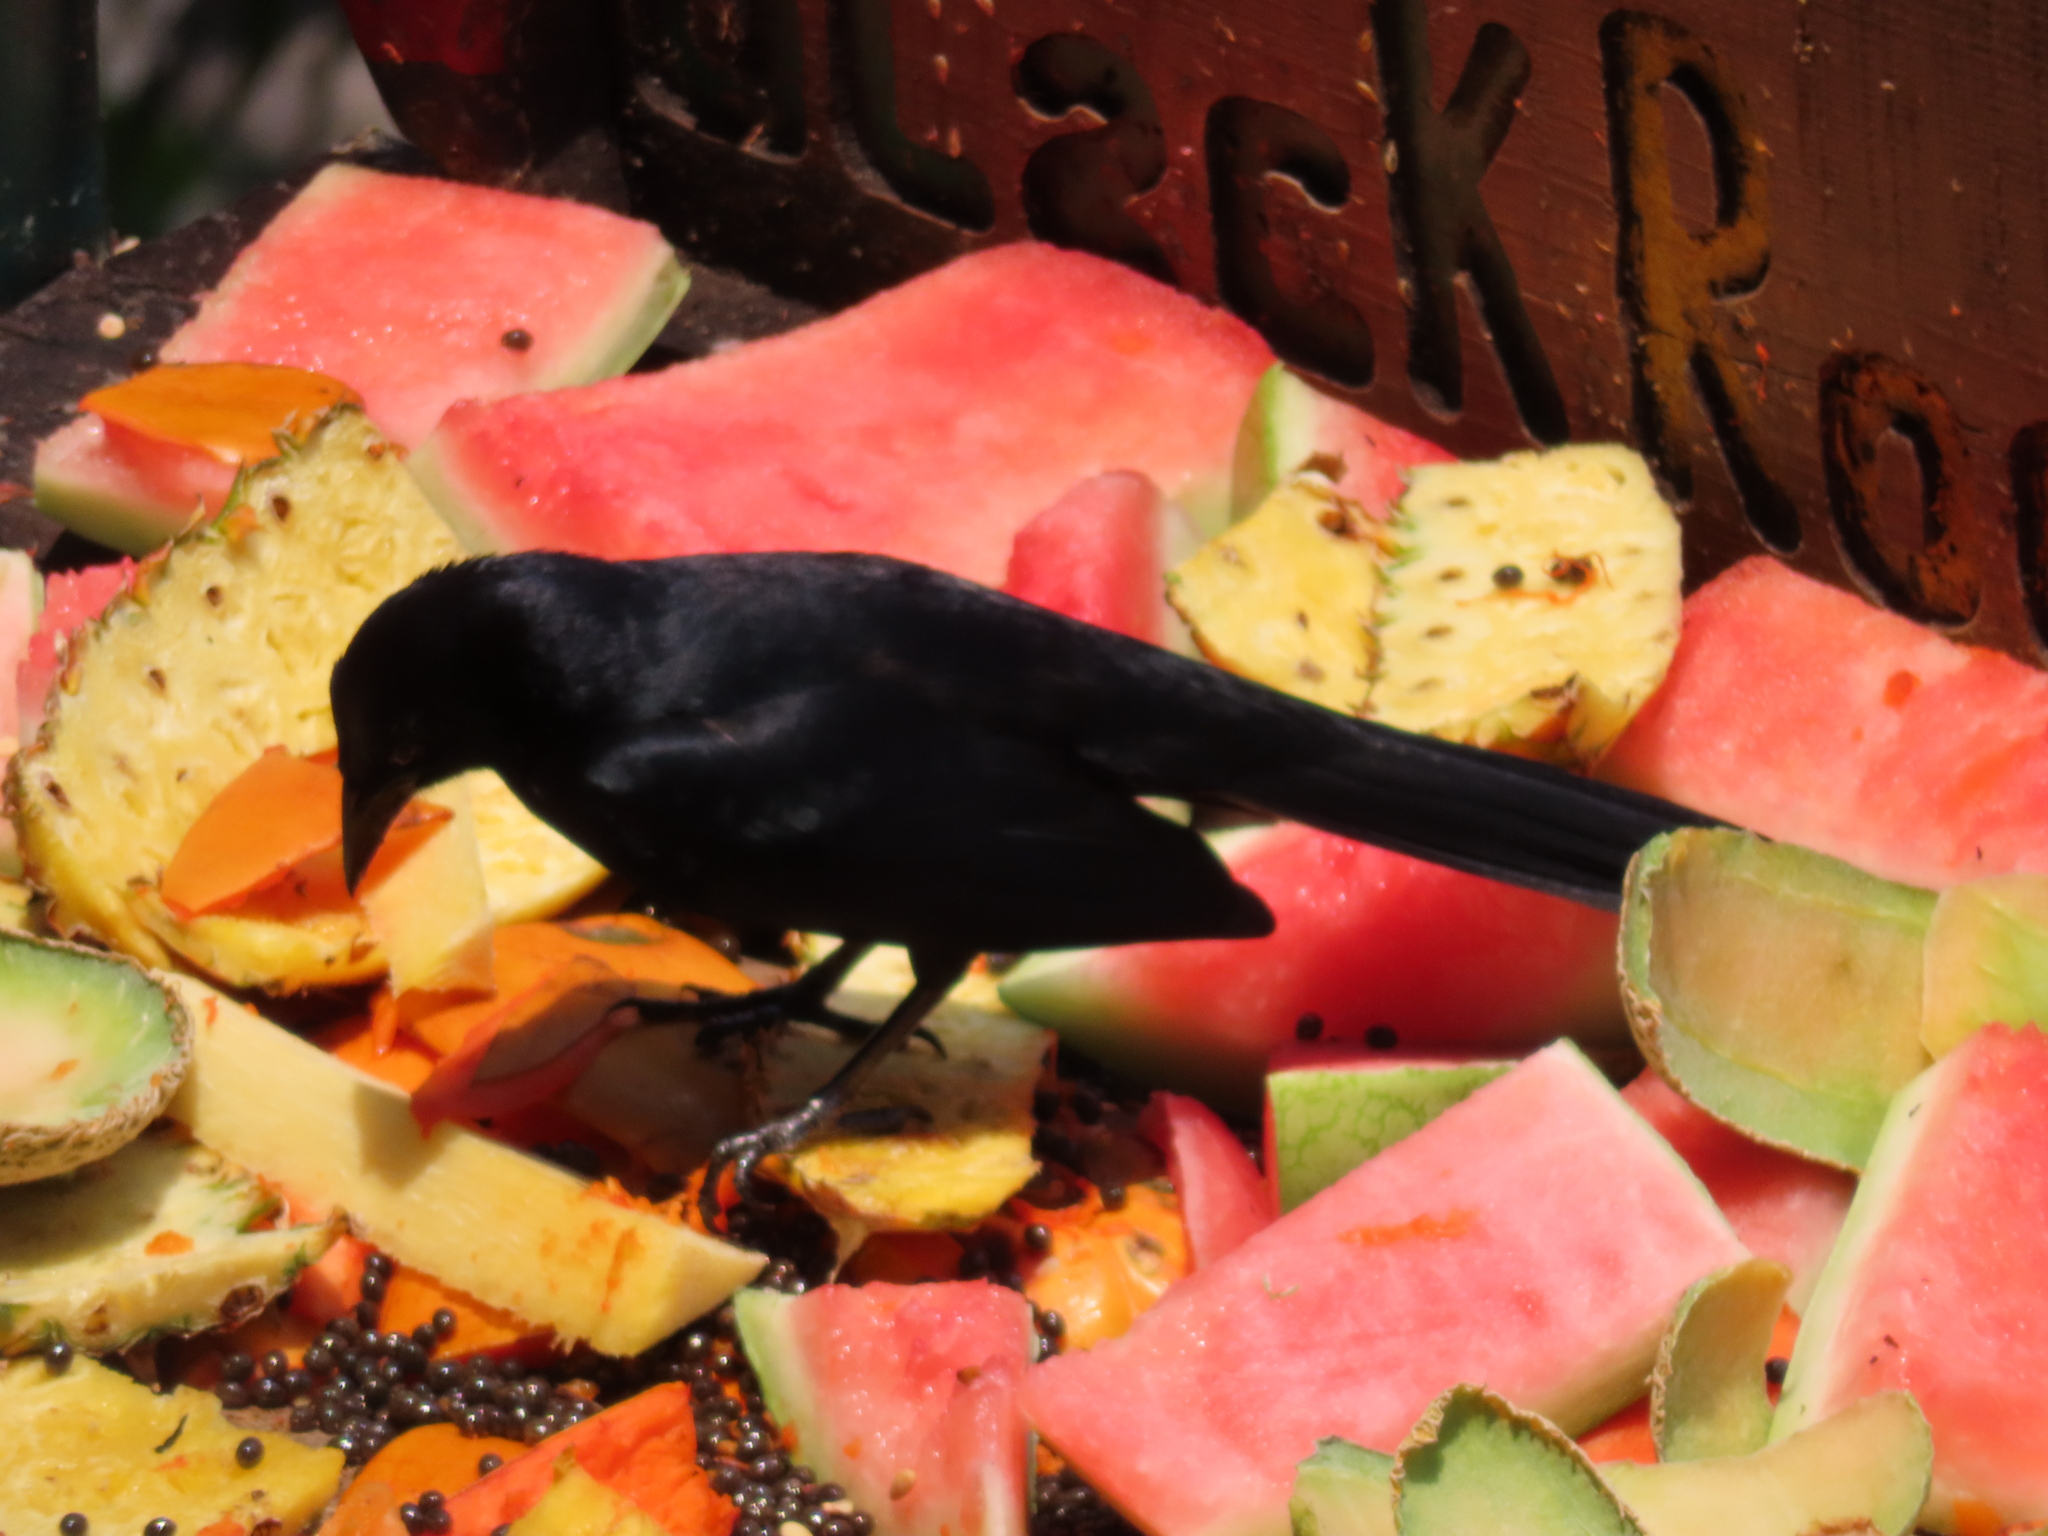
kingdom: Animalia
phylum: Chordata
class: Aves
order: Passeriformes
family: Icteridae
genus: Dives
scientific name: Dives dives
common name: Melodious blackbird
